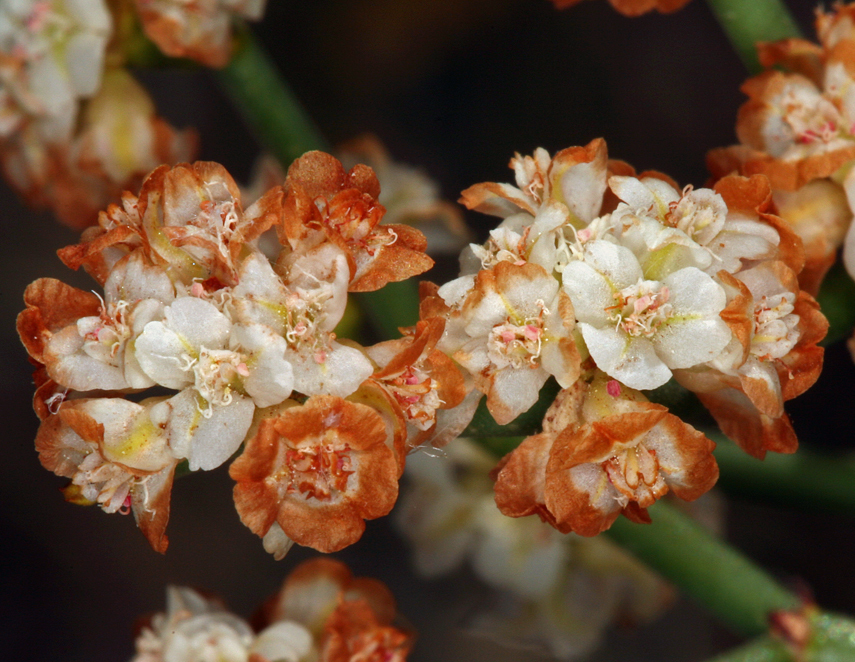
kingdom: Plantae
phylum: Tracheophyta
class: Magnoliopsida
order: Caryophyllales
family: Polygonaceae
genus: Eriogonum
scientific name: Eriogonum heermannii
